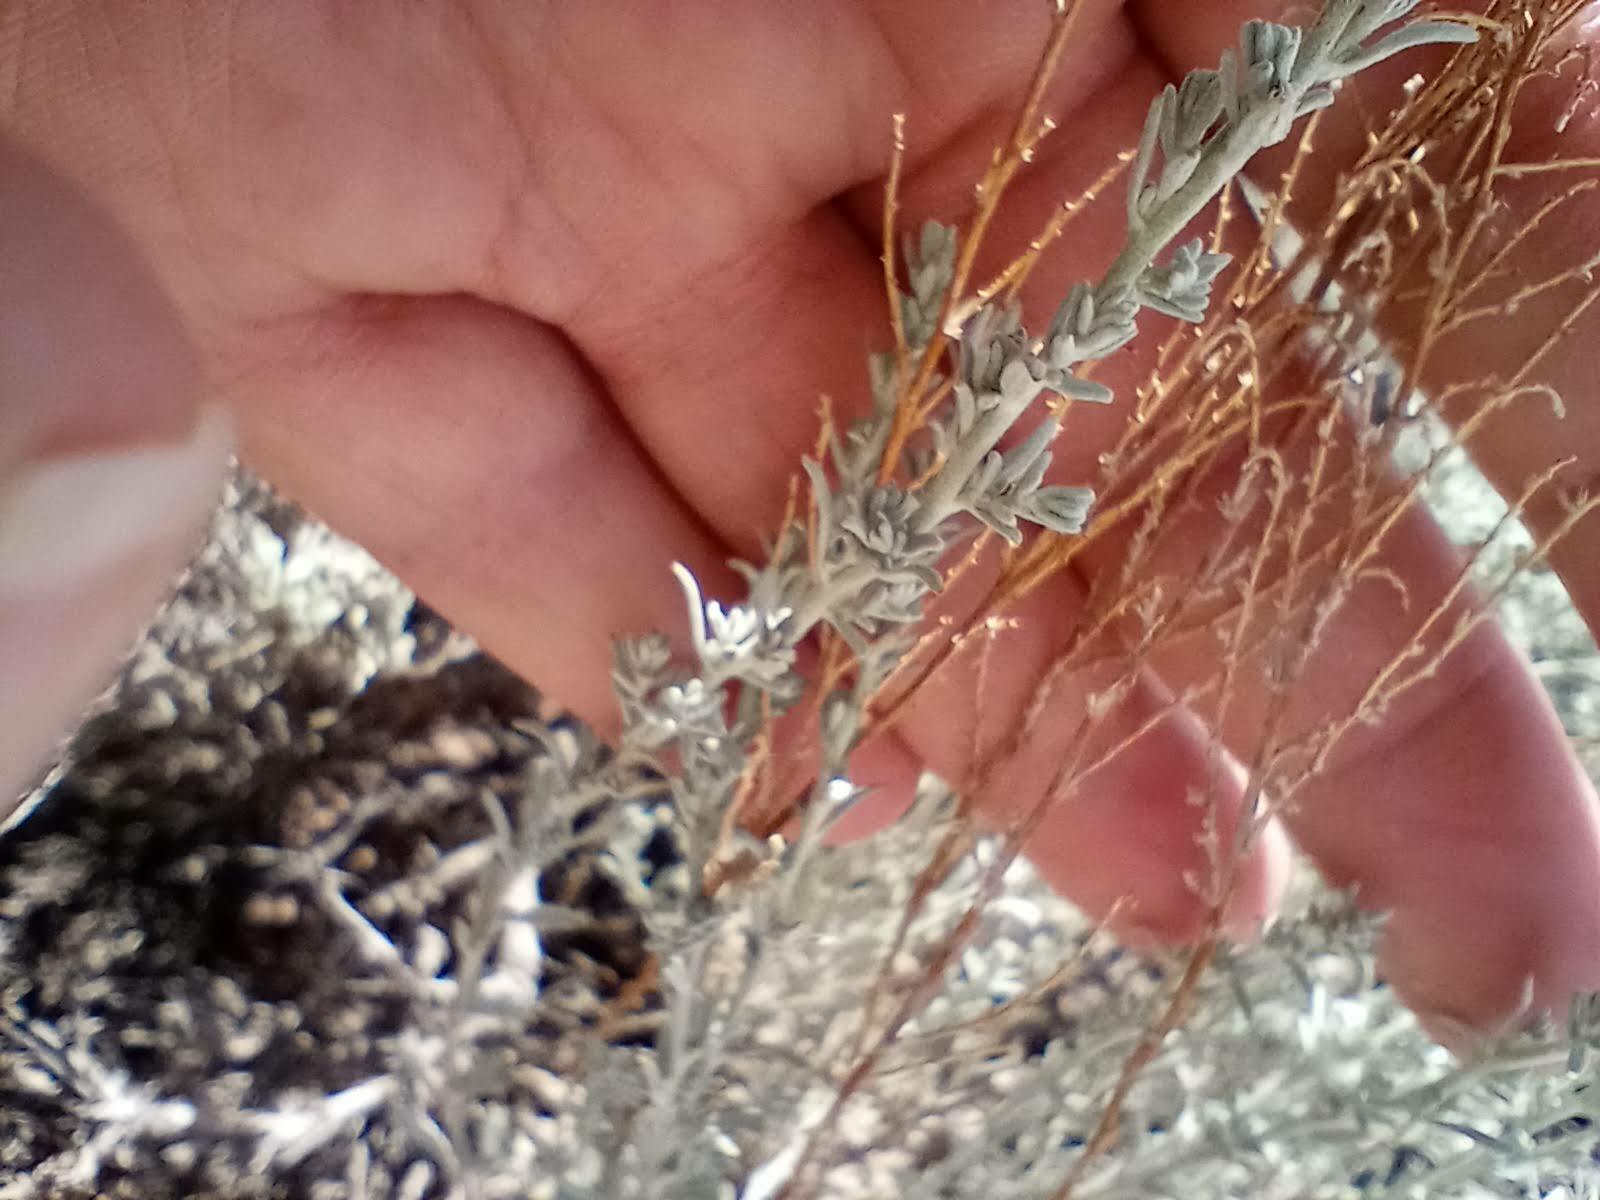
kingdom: Plantae
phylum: Tracheophyta
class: Magnoliopsida
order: Caryophyllales
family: Amaranthaceae
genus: Krascheninnikovia
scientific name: Krascheninnikovia lanata
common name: Winterfat
